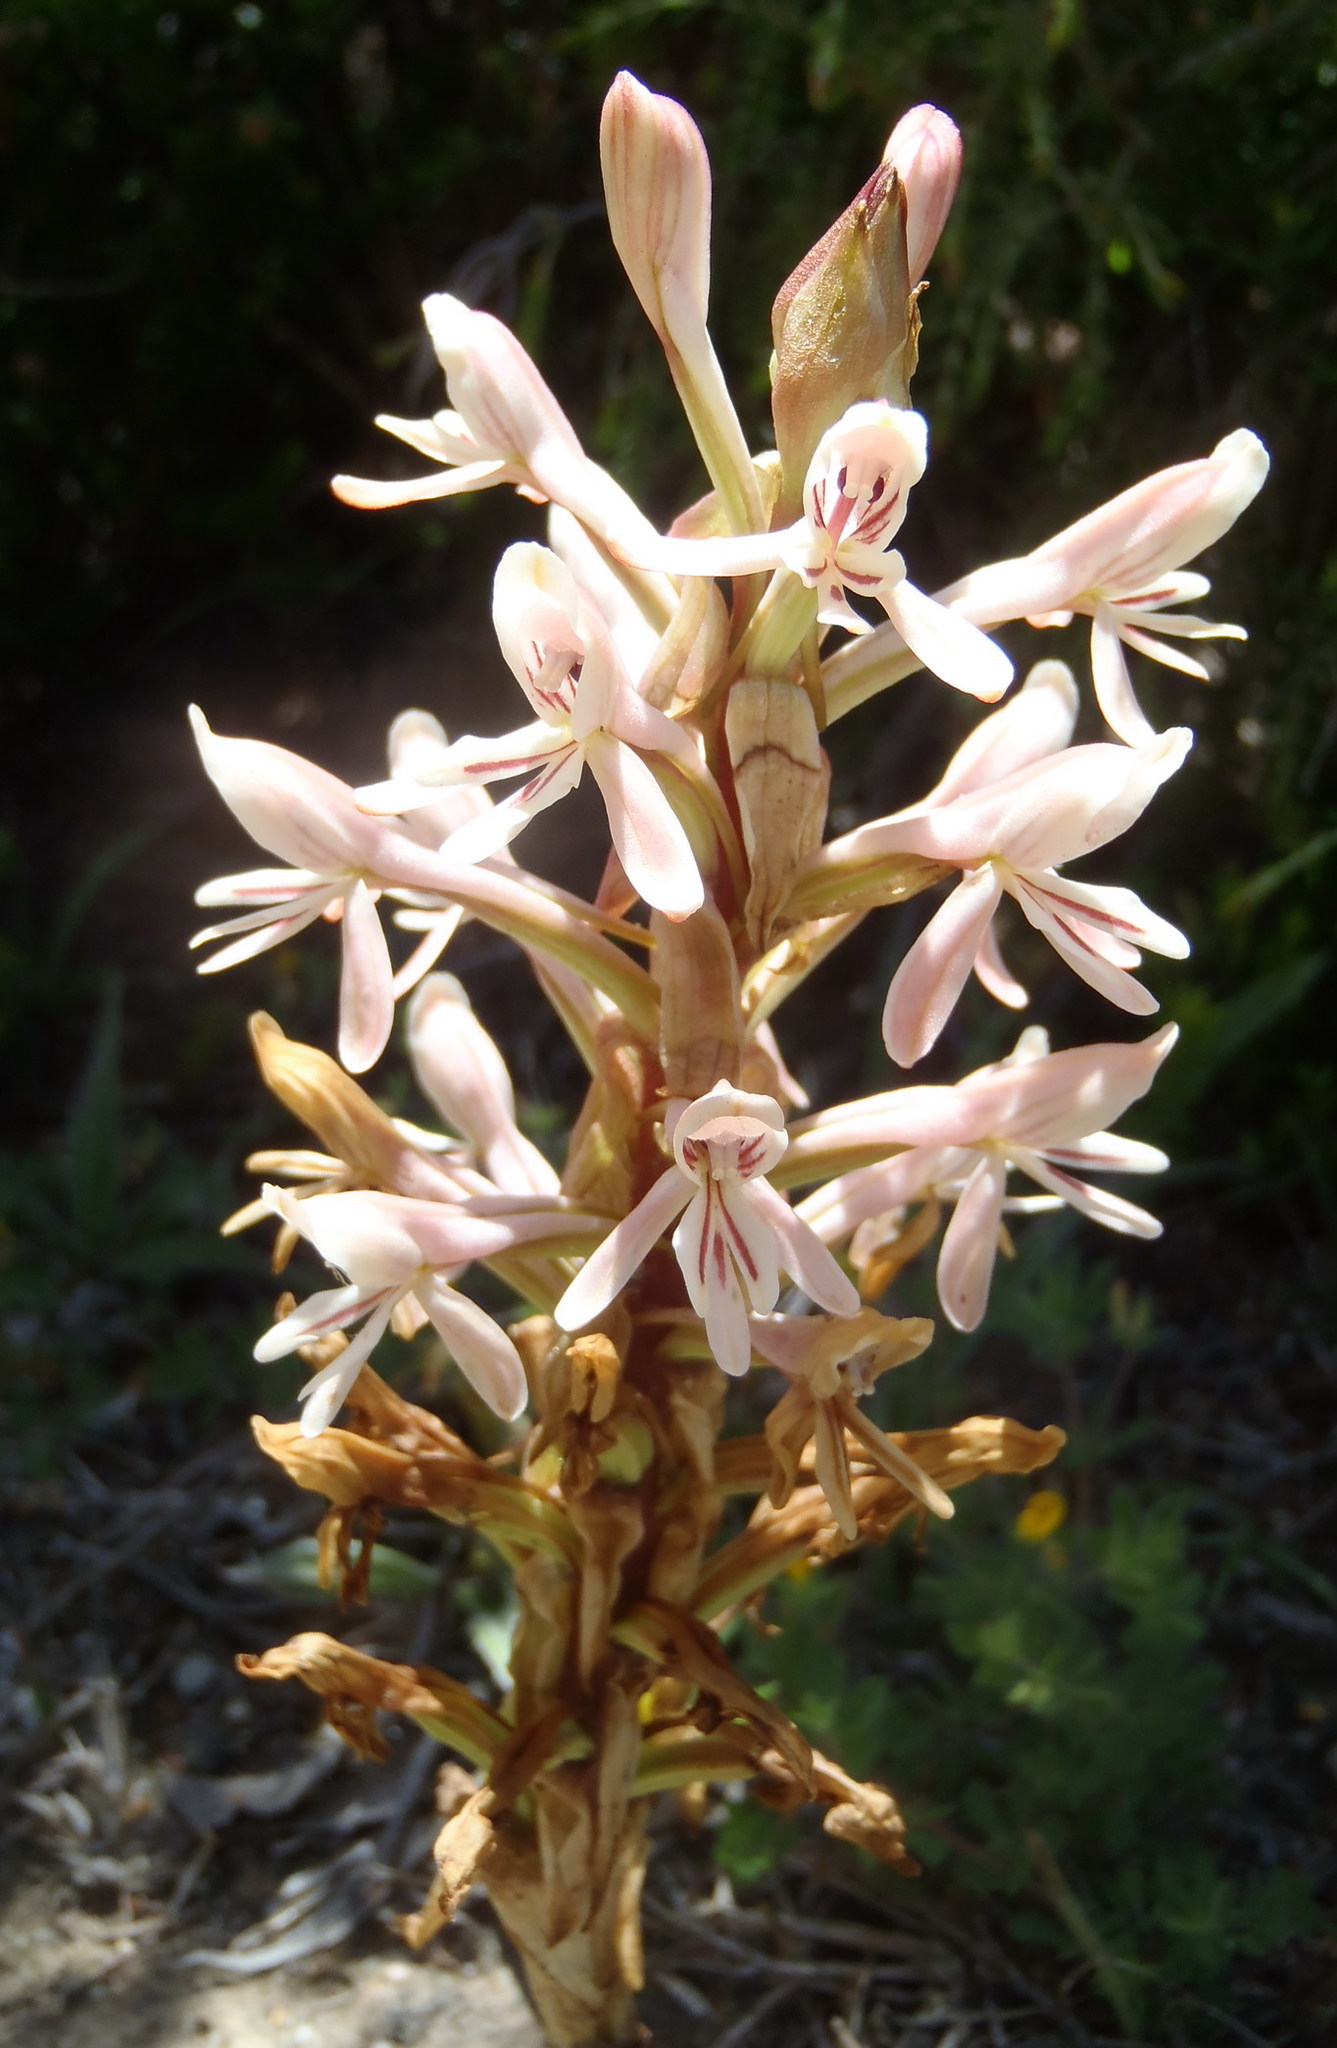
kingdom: Plantae
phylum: Tracheophyta
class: Liliopsida
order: Asparagales
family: Orchidaceae
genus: Satyrium
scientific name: Satyrium longicolle
